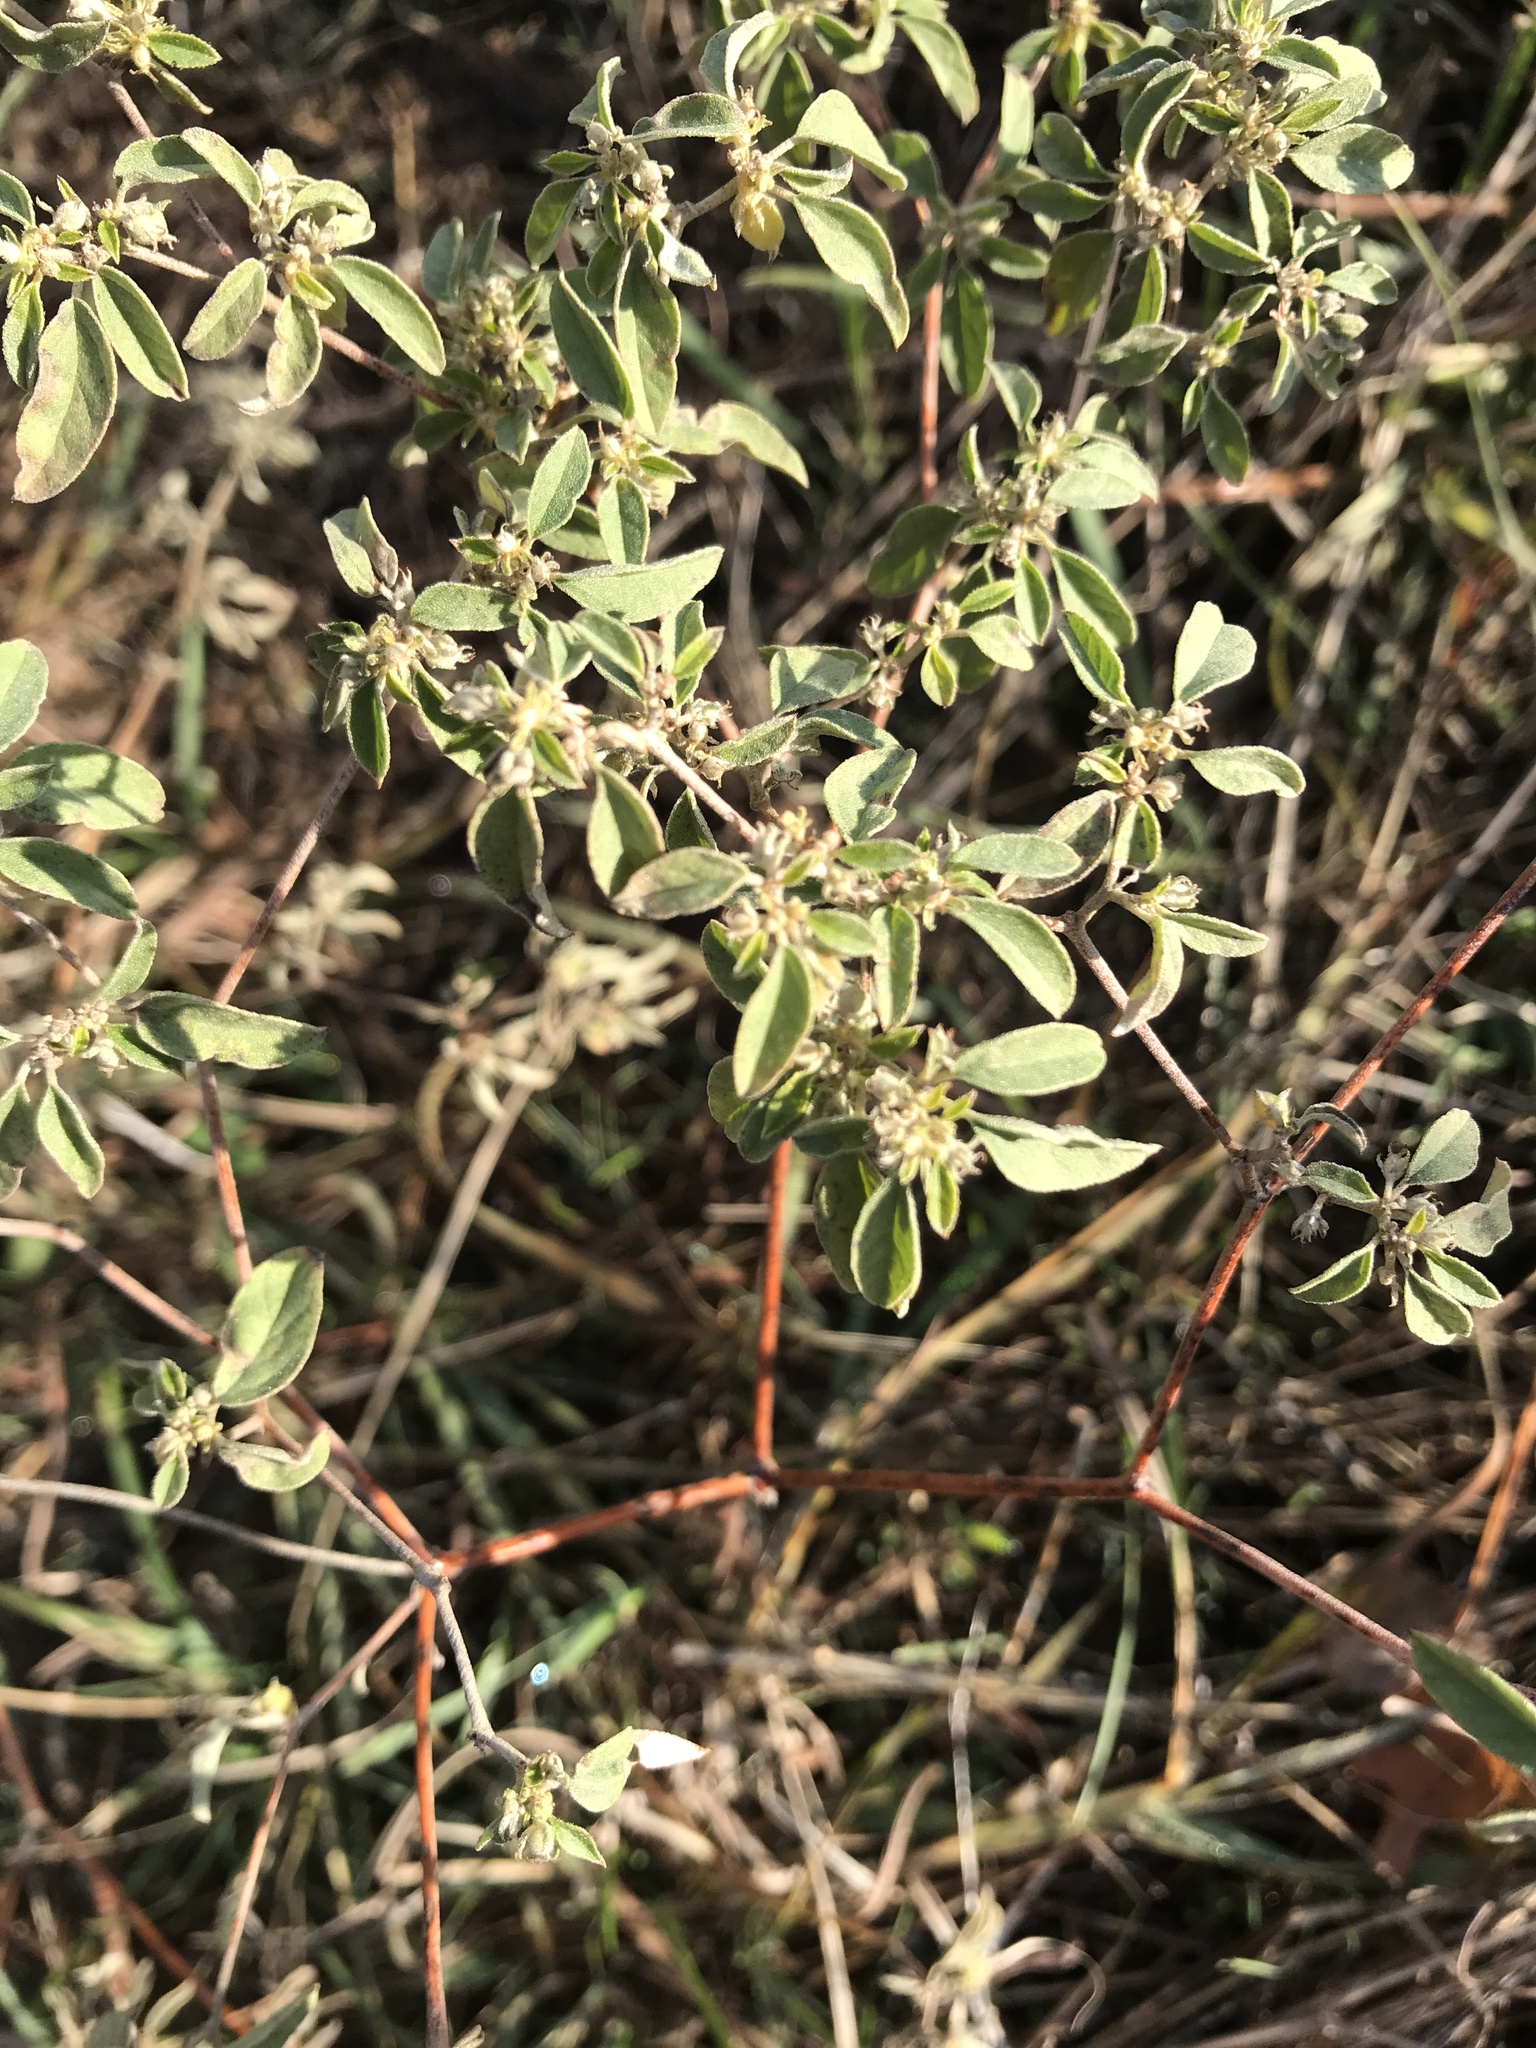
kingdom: Plantae
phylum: Tracheophyta
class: Magnoliopsida
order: Malpighiales
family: Euphorbiaceae
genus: Croton
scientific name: Croton monanthogynus
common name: One-seed croton
